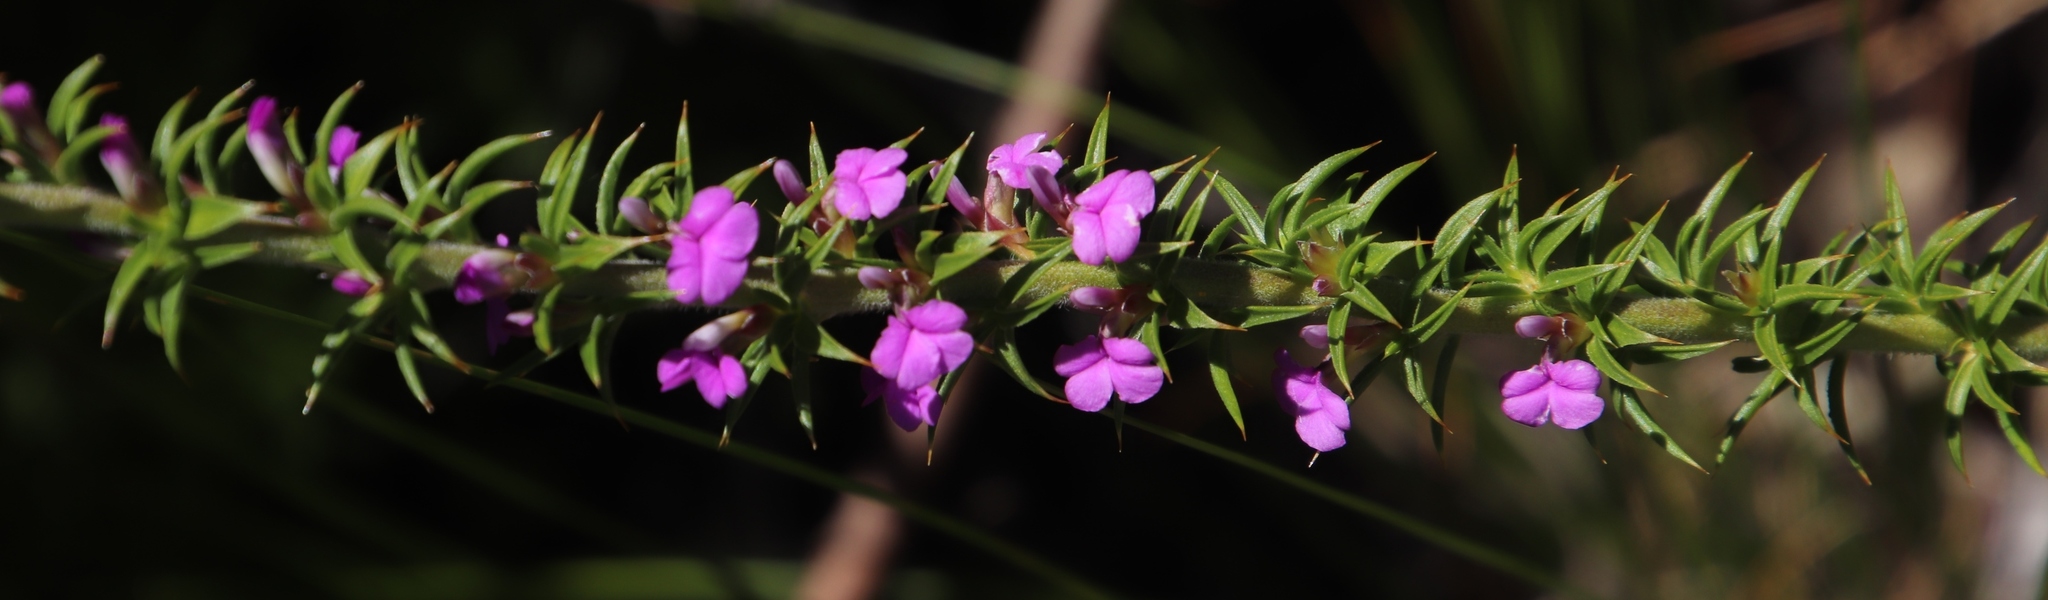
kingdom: Plantae
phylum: Tracheophyta
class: Magnoliopsida
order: Fabales
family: Polygalaceae
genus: Muraltia
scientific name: Muraltia heisteria
